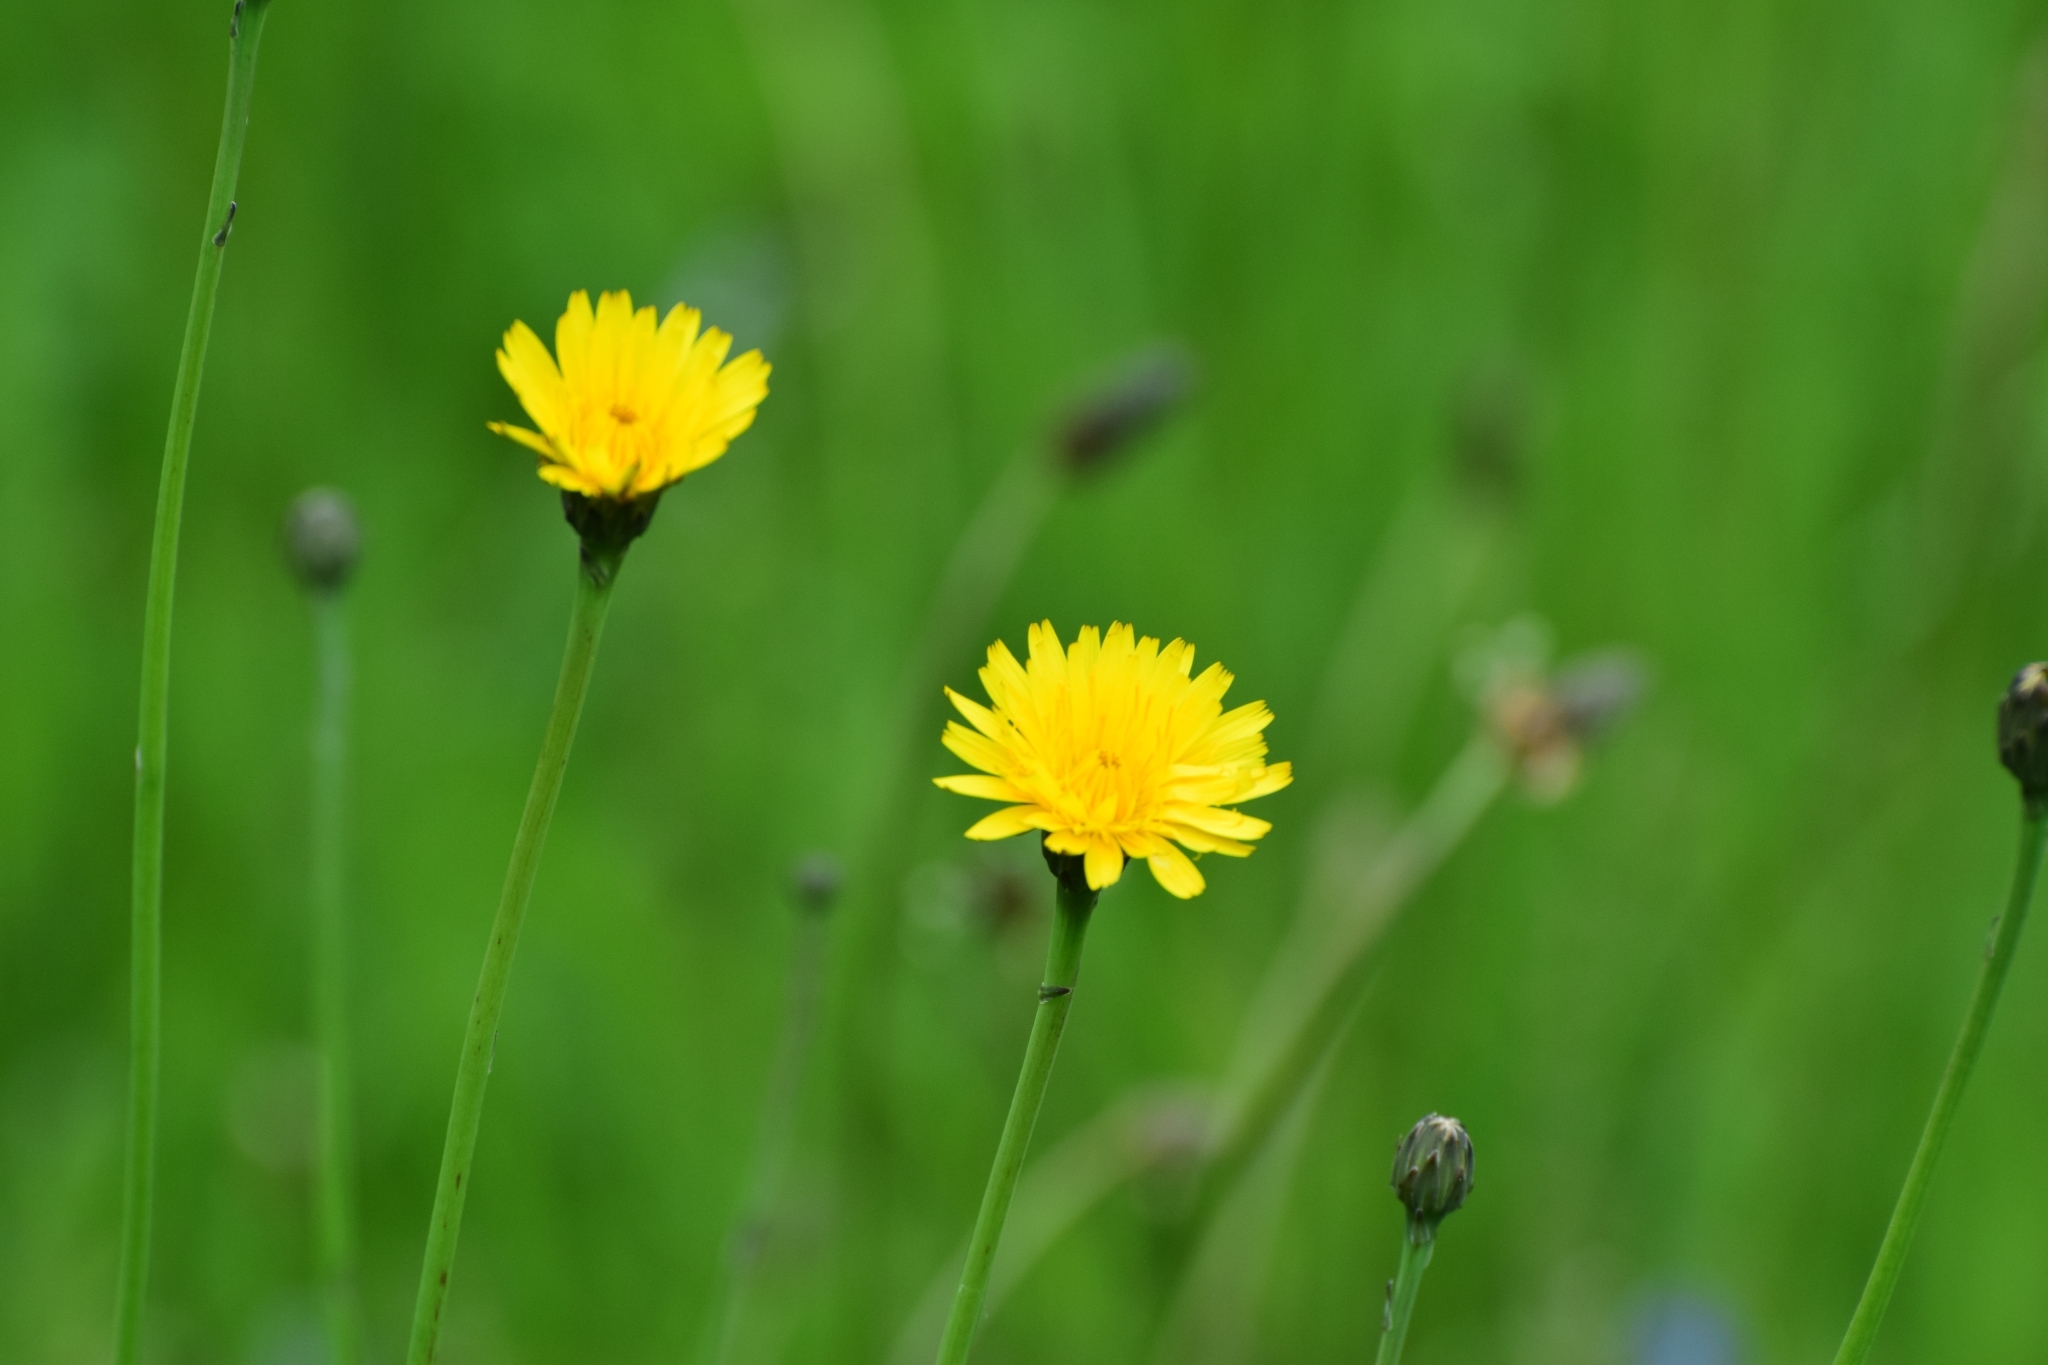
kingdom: Plantae
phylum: Tracheophyta
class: Magnoliopsida
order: Asterales
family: Asteraceae
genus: Hypochaeris
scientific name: Hypochaeris radicata
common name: Flatweed
